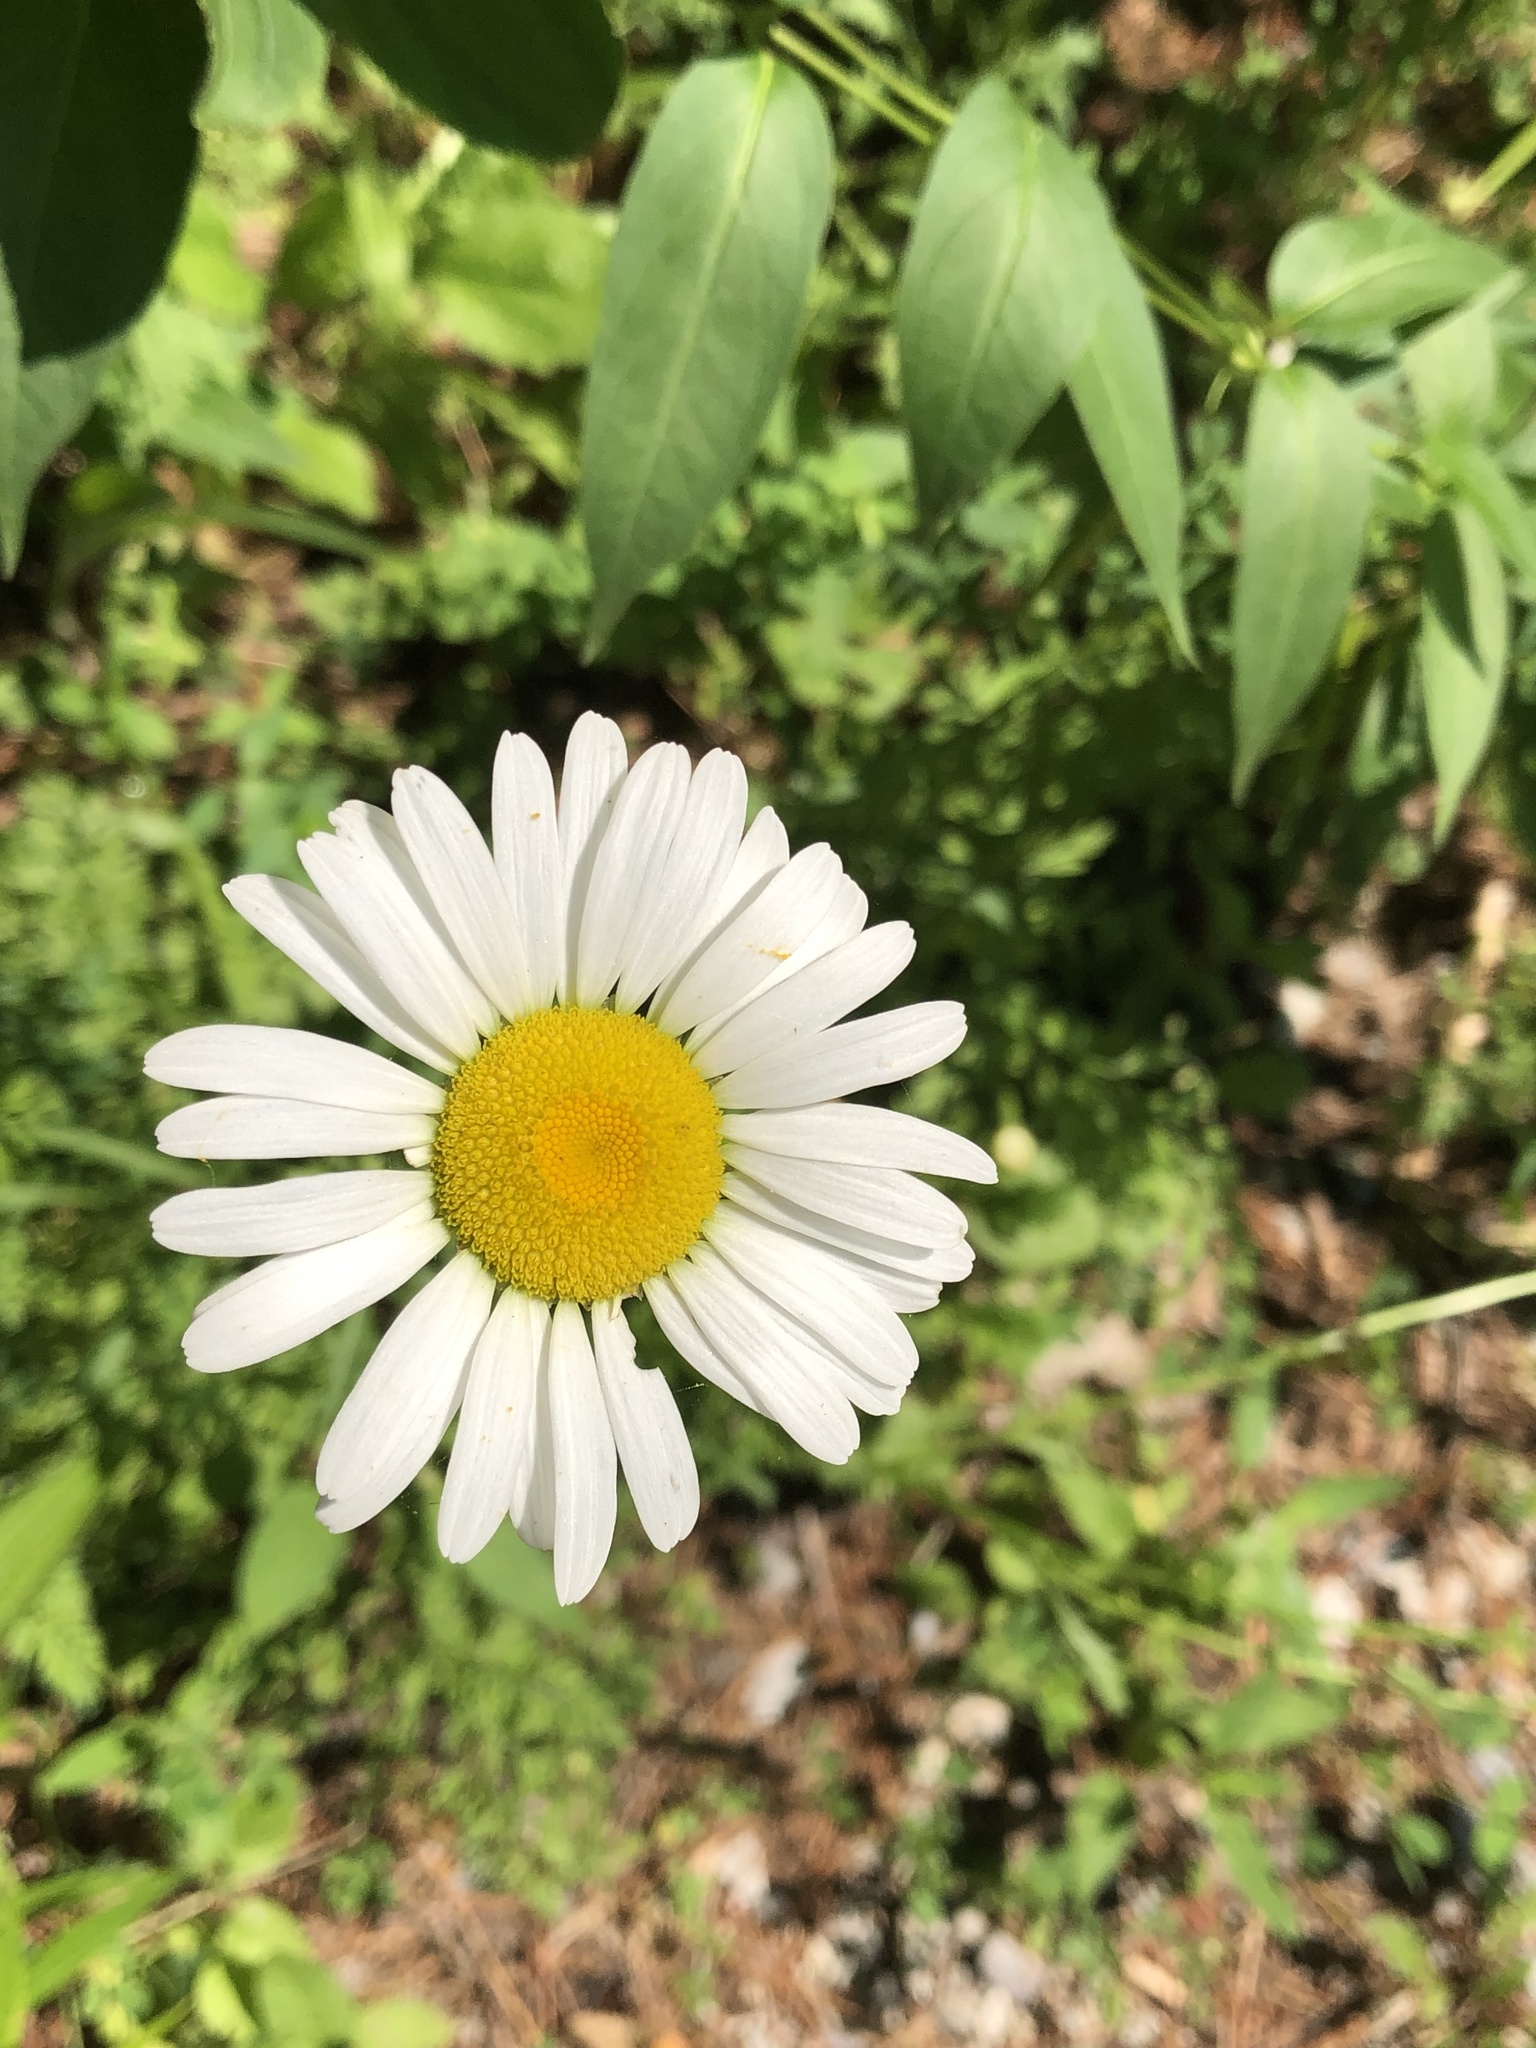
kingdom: Plantae
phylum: Tracheophyta
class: Magnoliopsida
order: Asterales
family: Asteraceae
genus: Leucanthemum
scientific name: Leucanthemum vulgare
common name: Oxeye daisy
